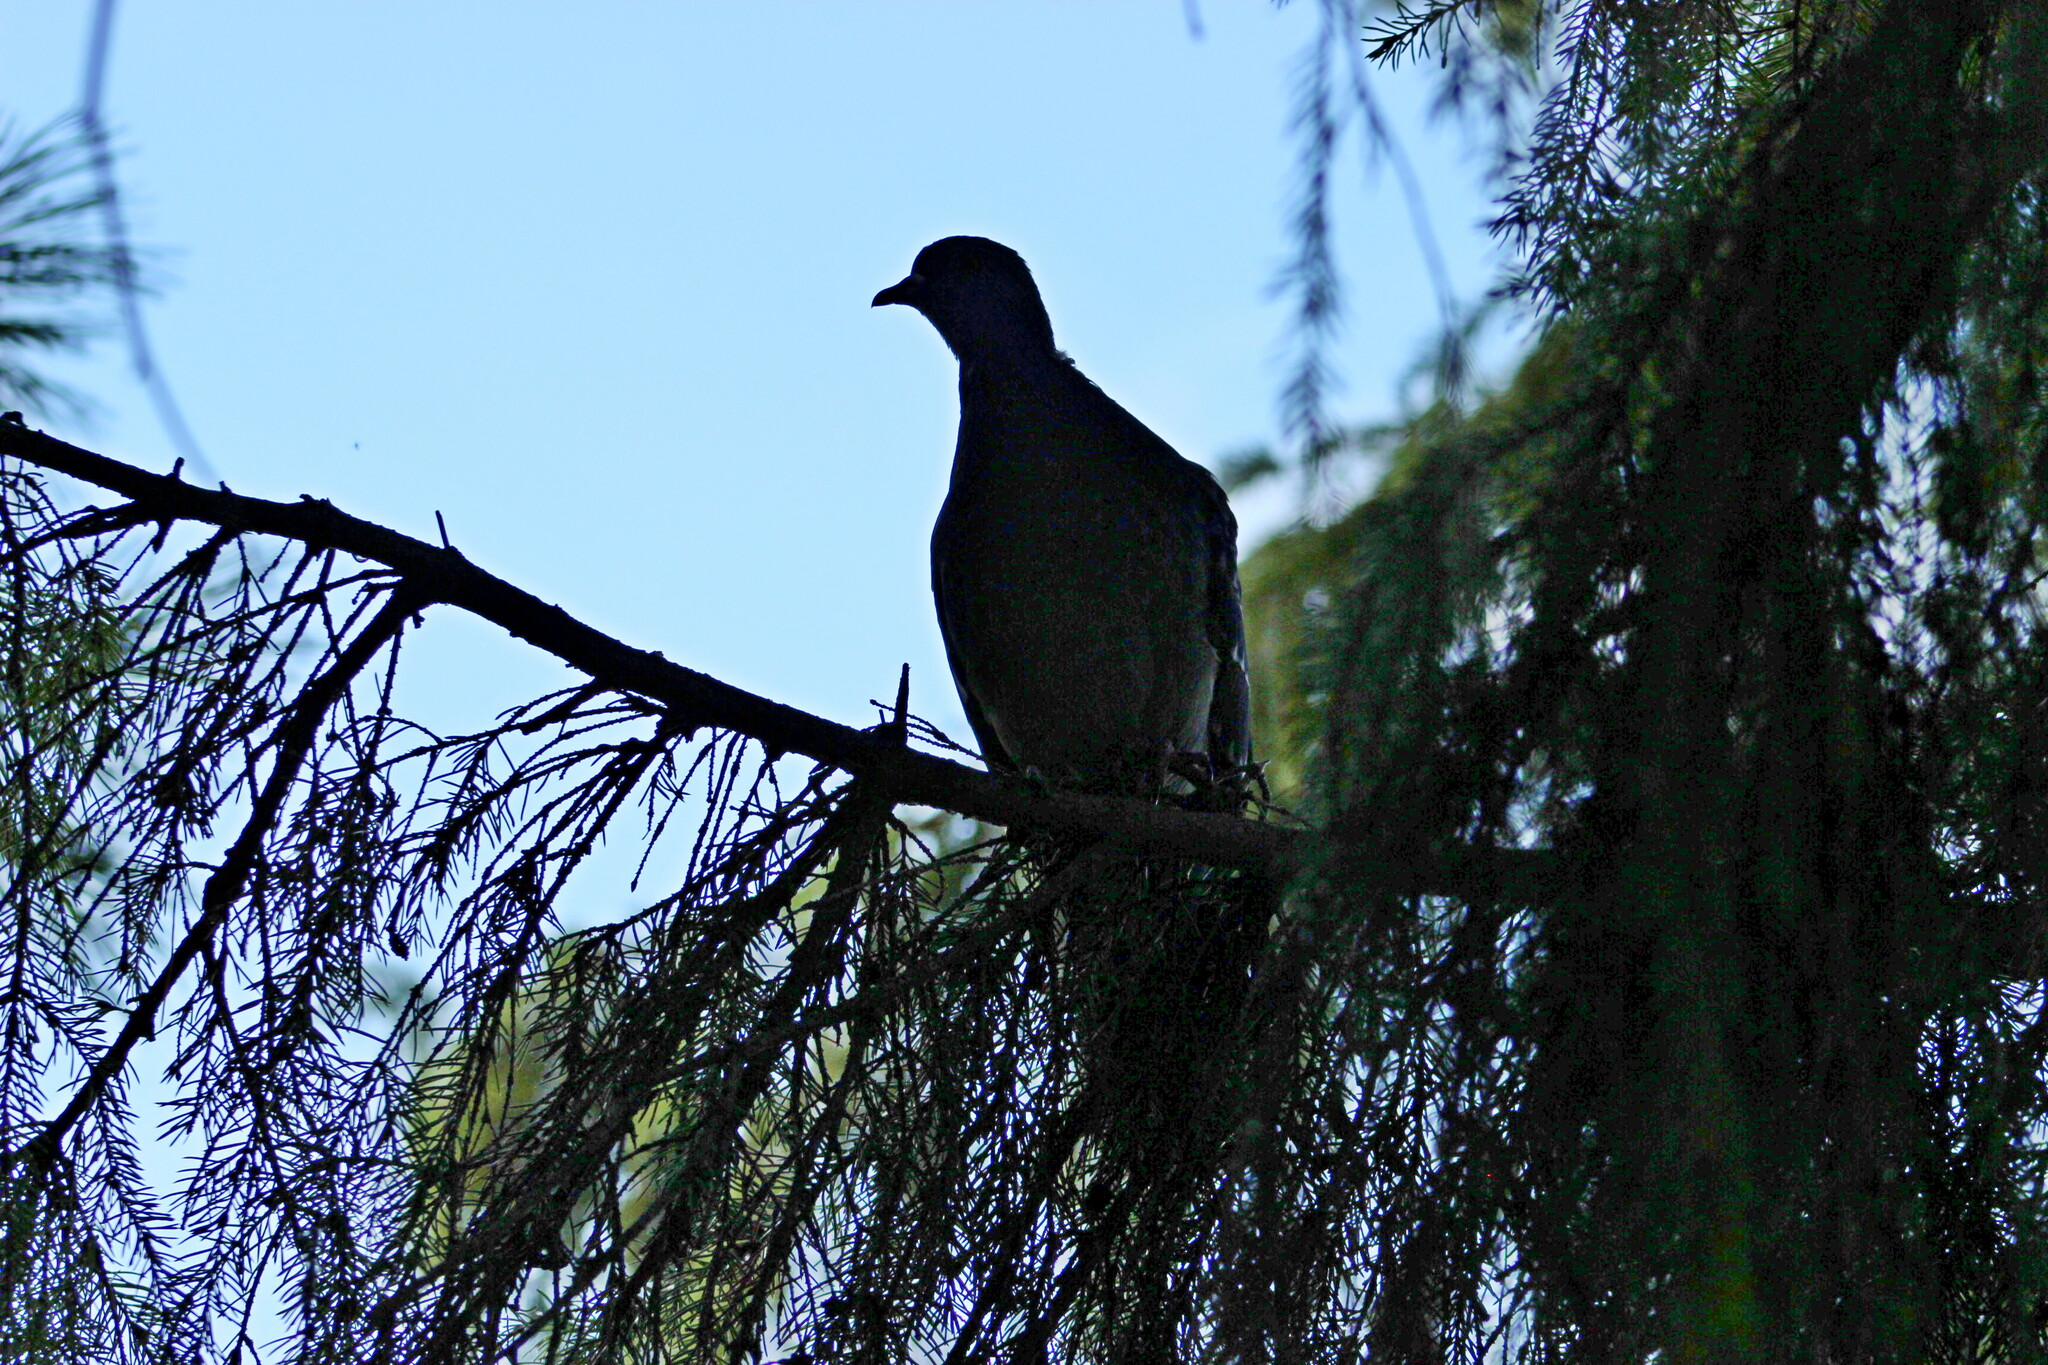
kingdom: Animalia
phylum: Chordata
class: Aves
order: Columbiformes
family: Columbidae
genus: Columba
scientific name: Columba livia
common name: Rock pigeon
